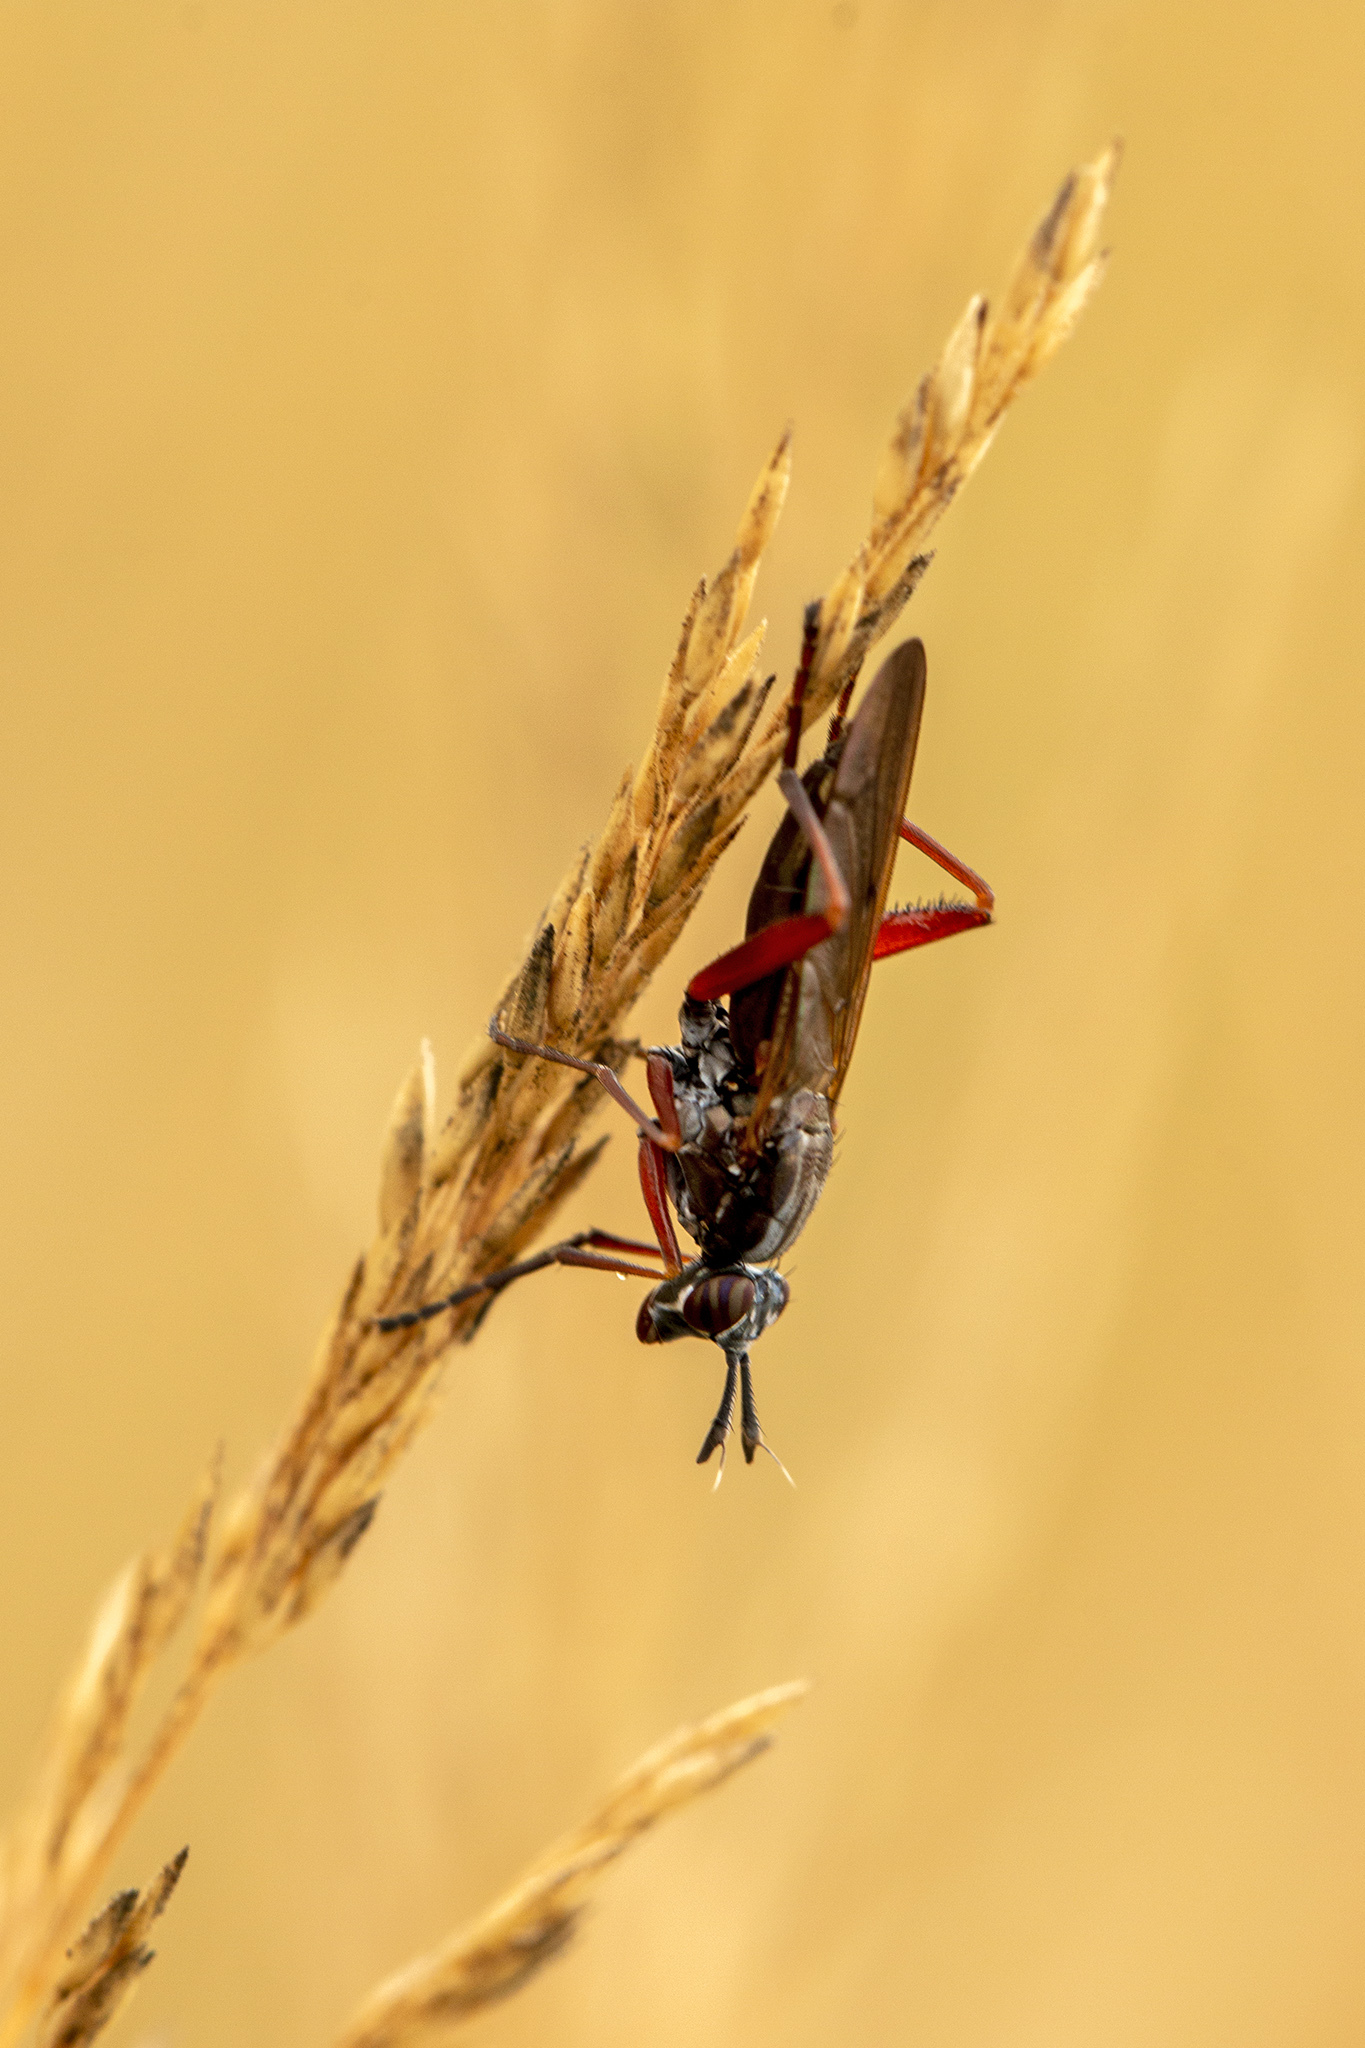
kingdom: Animalia
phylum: Arthropoda
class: Insecta
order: Diptera
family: Sciomyzidae
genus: Sepedon
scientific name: Sepedon sphegea
